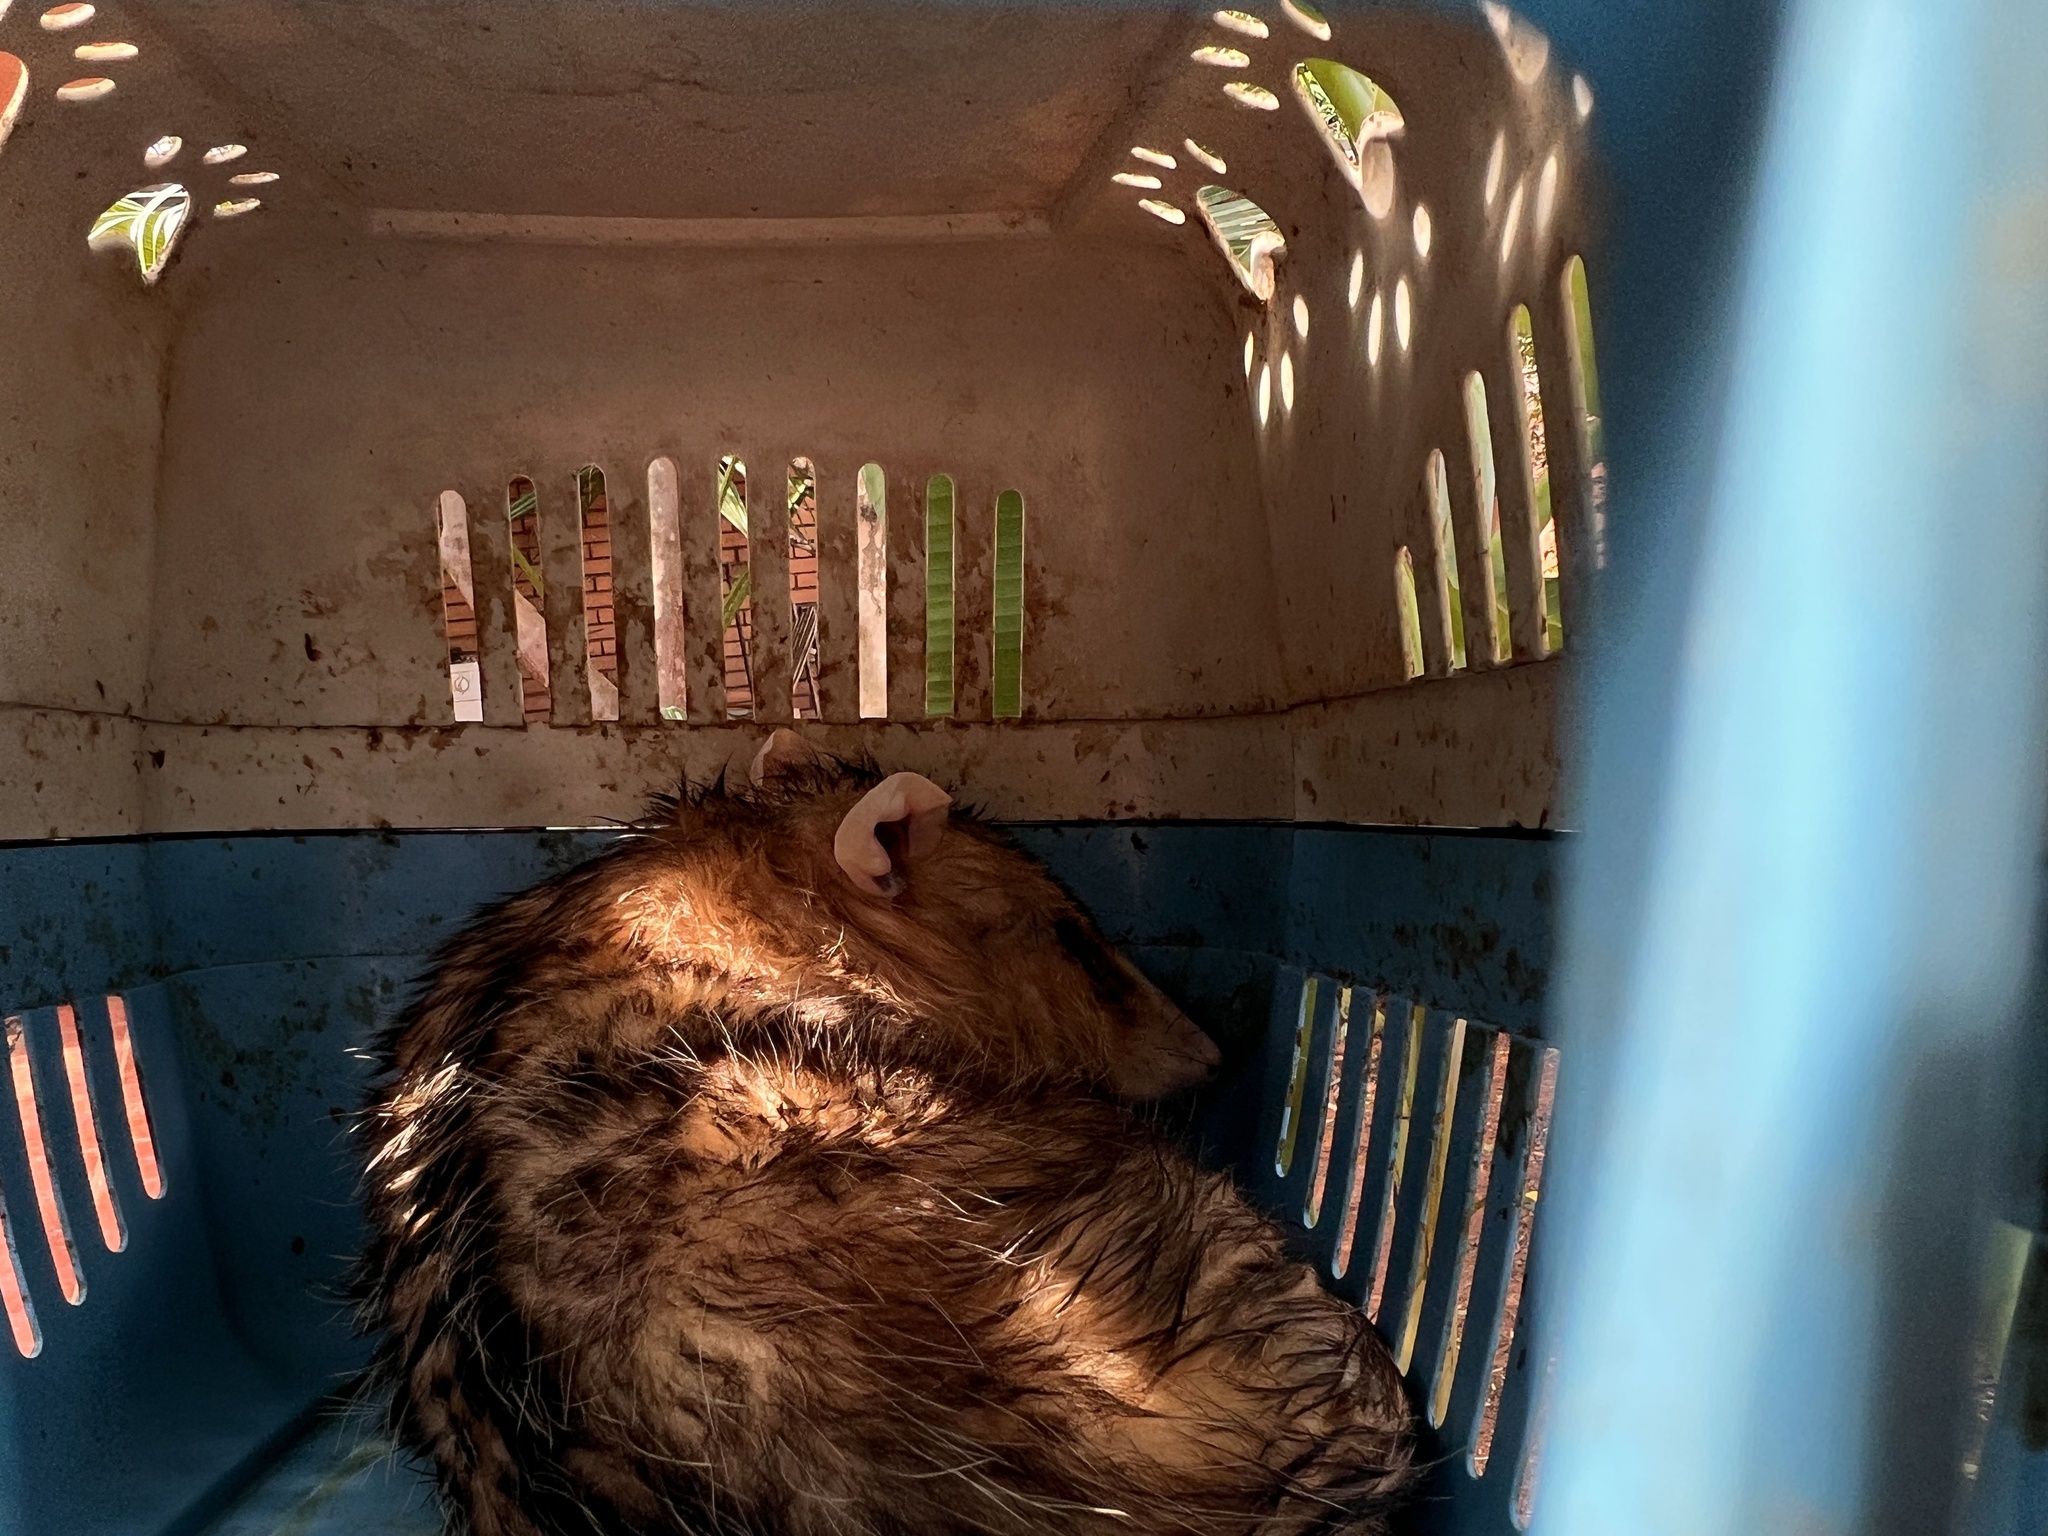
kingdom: Animalia
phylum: Chordata
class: Mammalia
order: Didelphimorphia
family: Didelphidae
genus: Didelphis
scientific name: Didelphis albiventris
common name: White-eared opossum
